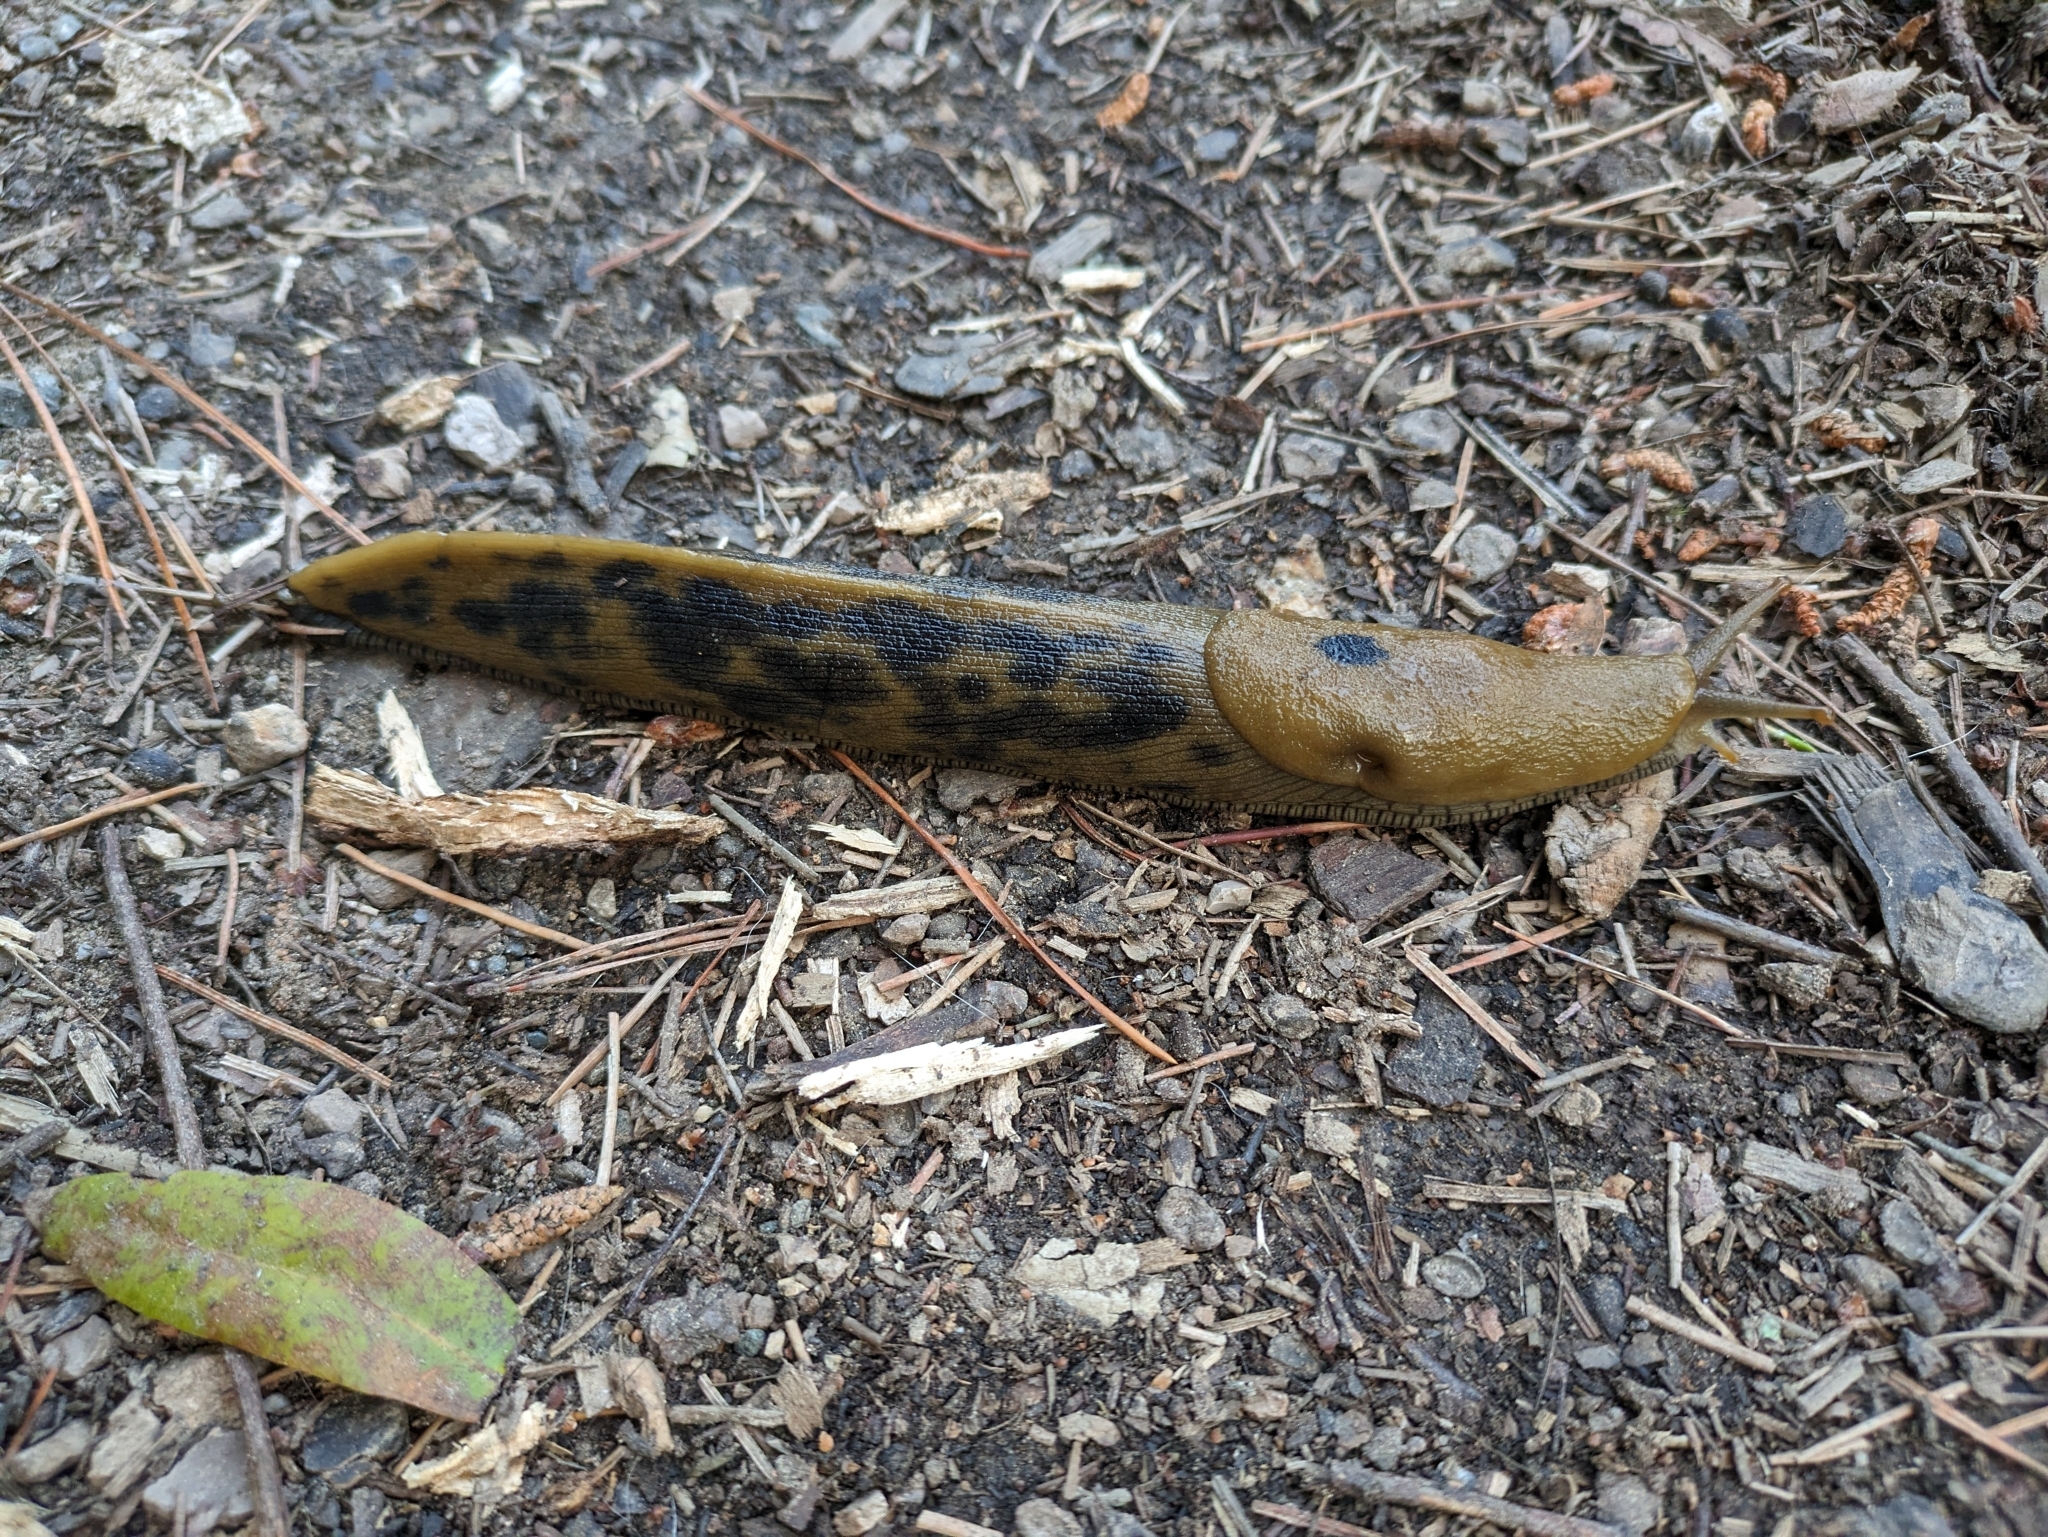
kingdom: Animalia
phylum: Mollusca
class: Gastropoda
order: Stylommatophora
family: Ariolimacidae
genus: Ariolimax
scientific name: Ariolimax buttoni
